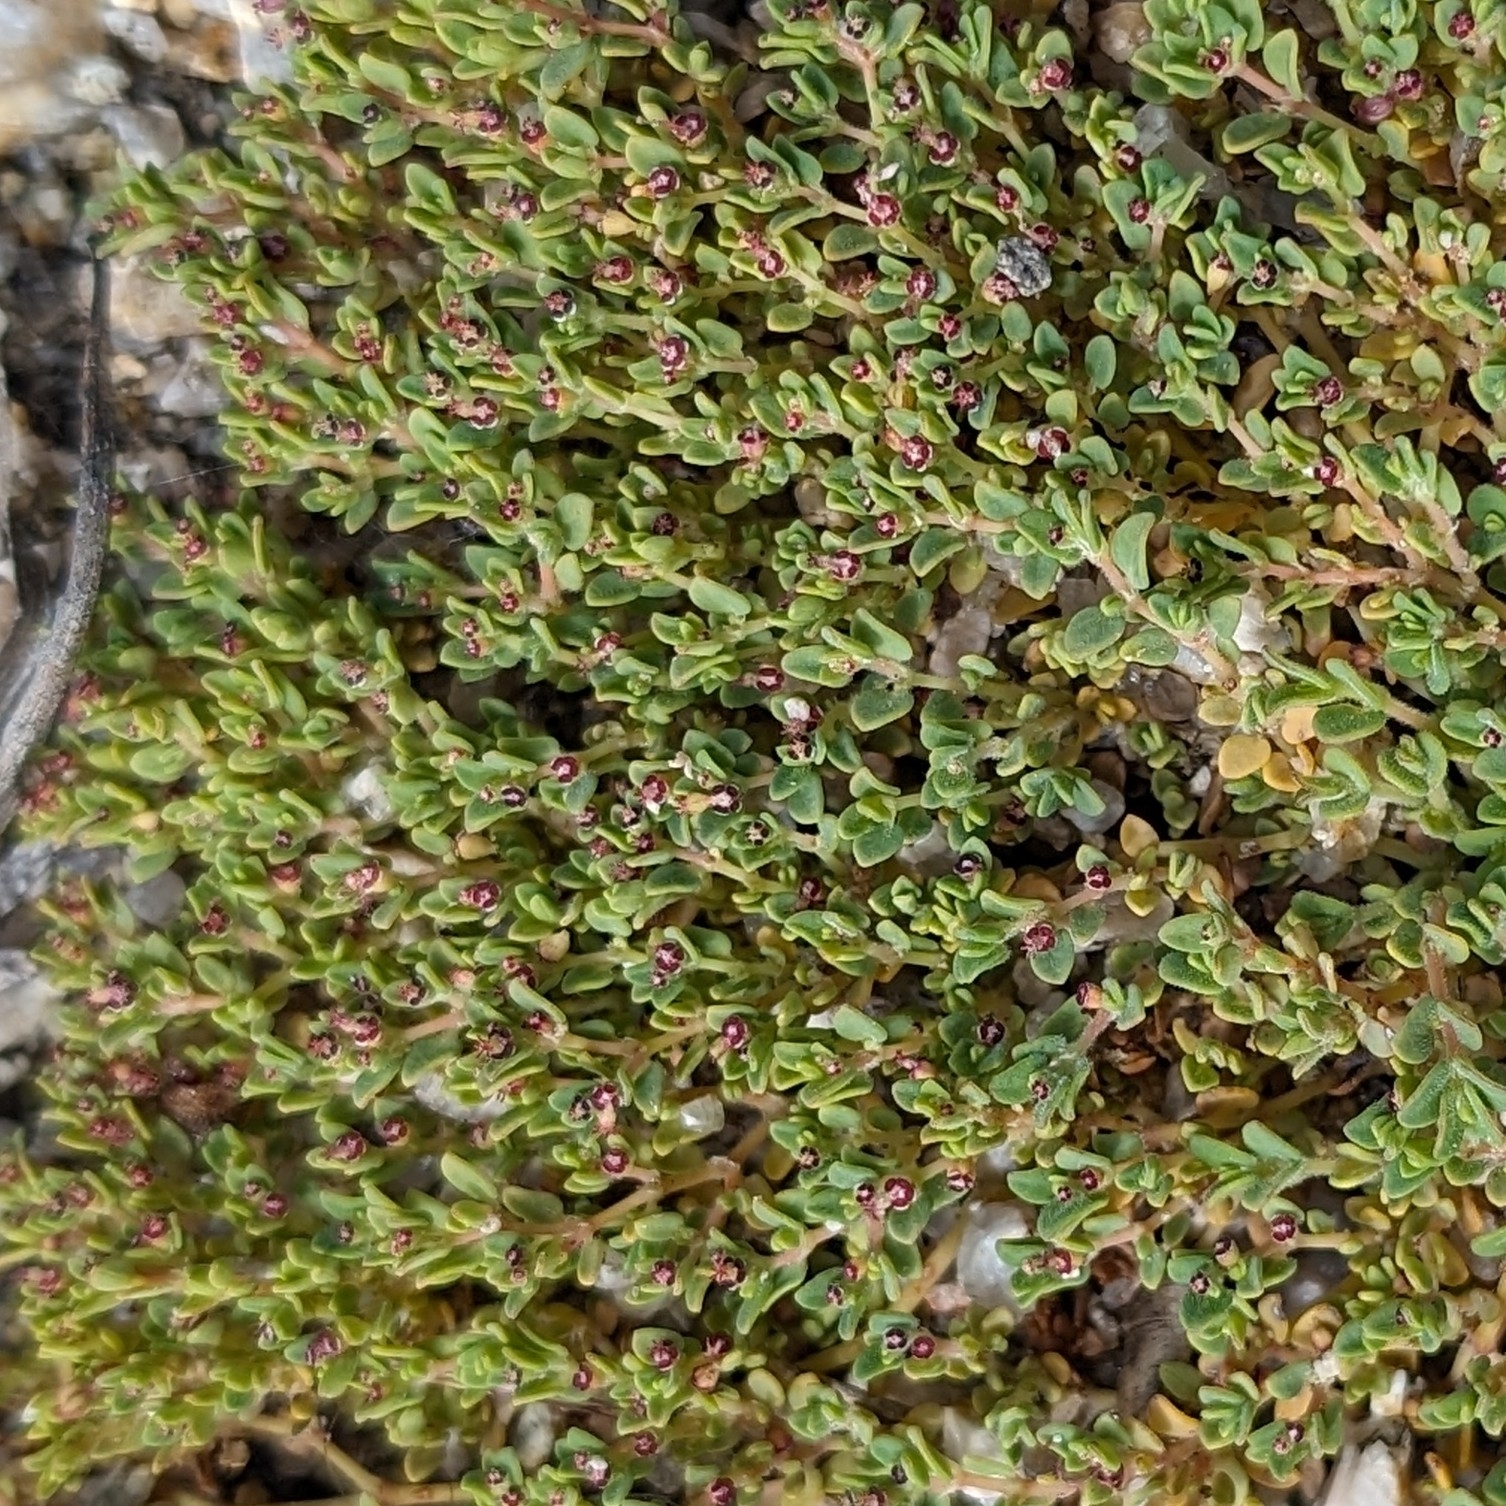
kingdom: Plantae
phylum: Tracheophyta
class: Magnoliopsida
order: Malpighiales
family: Euphorbiaceae
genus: Euphorbia
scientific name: Euphorbia polycarpa
